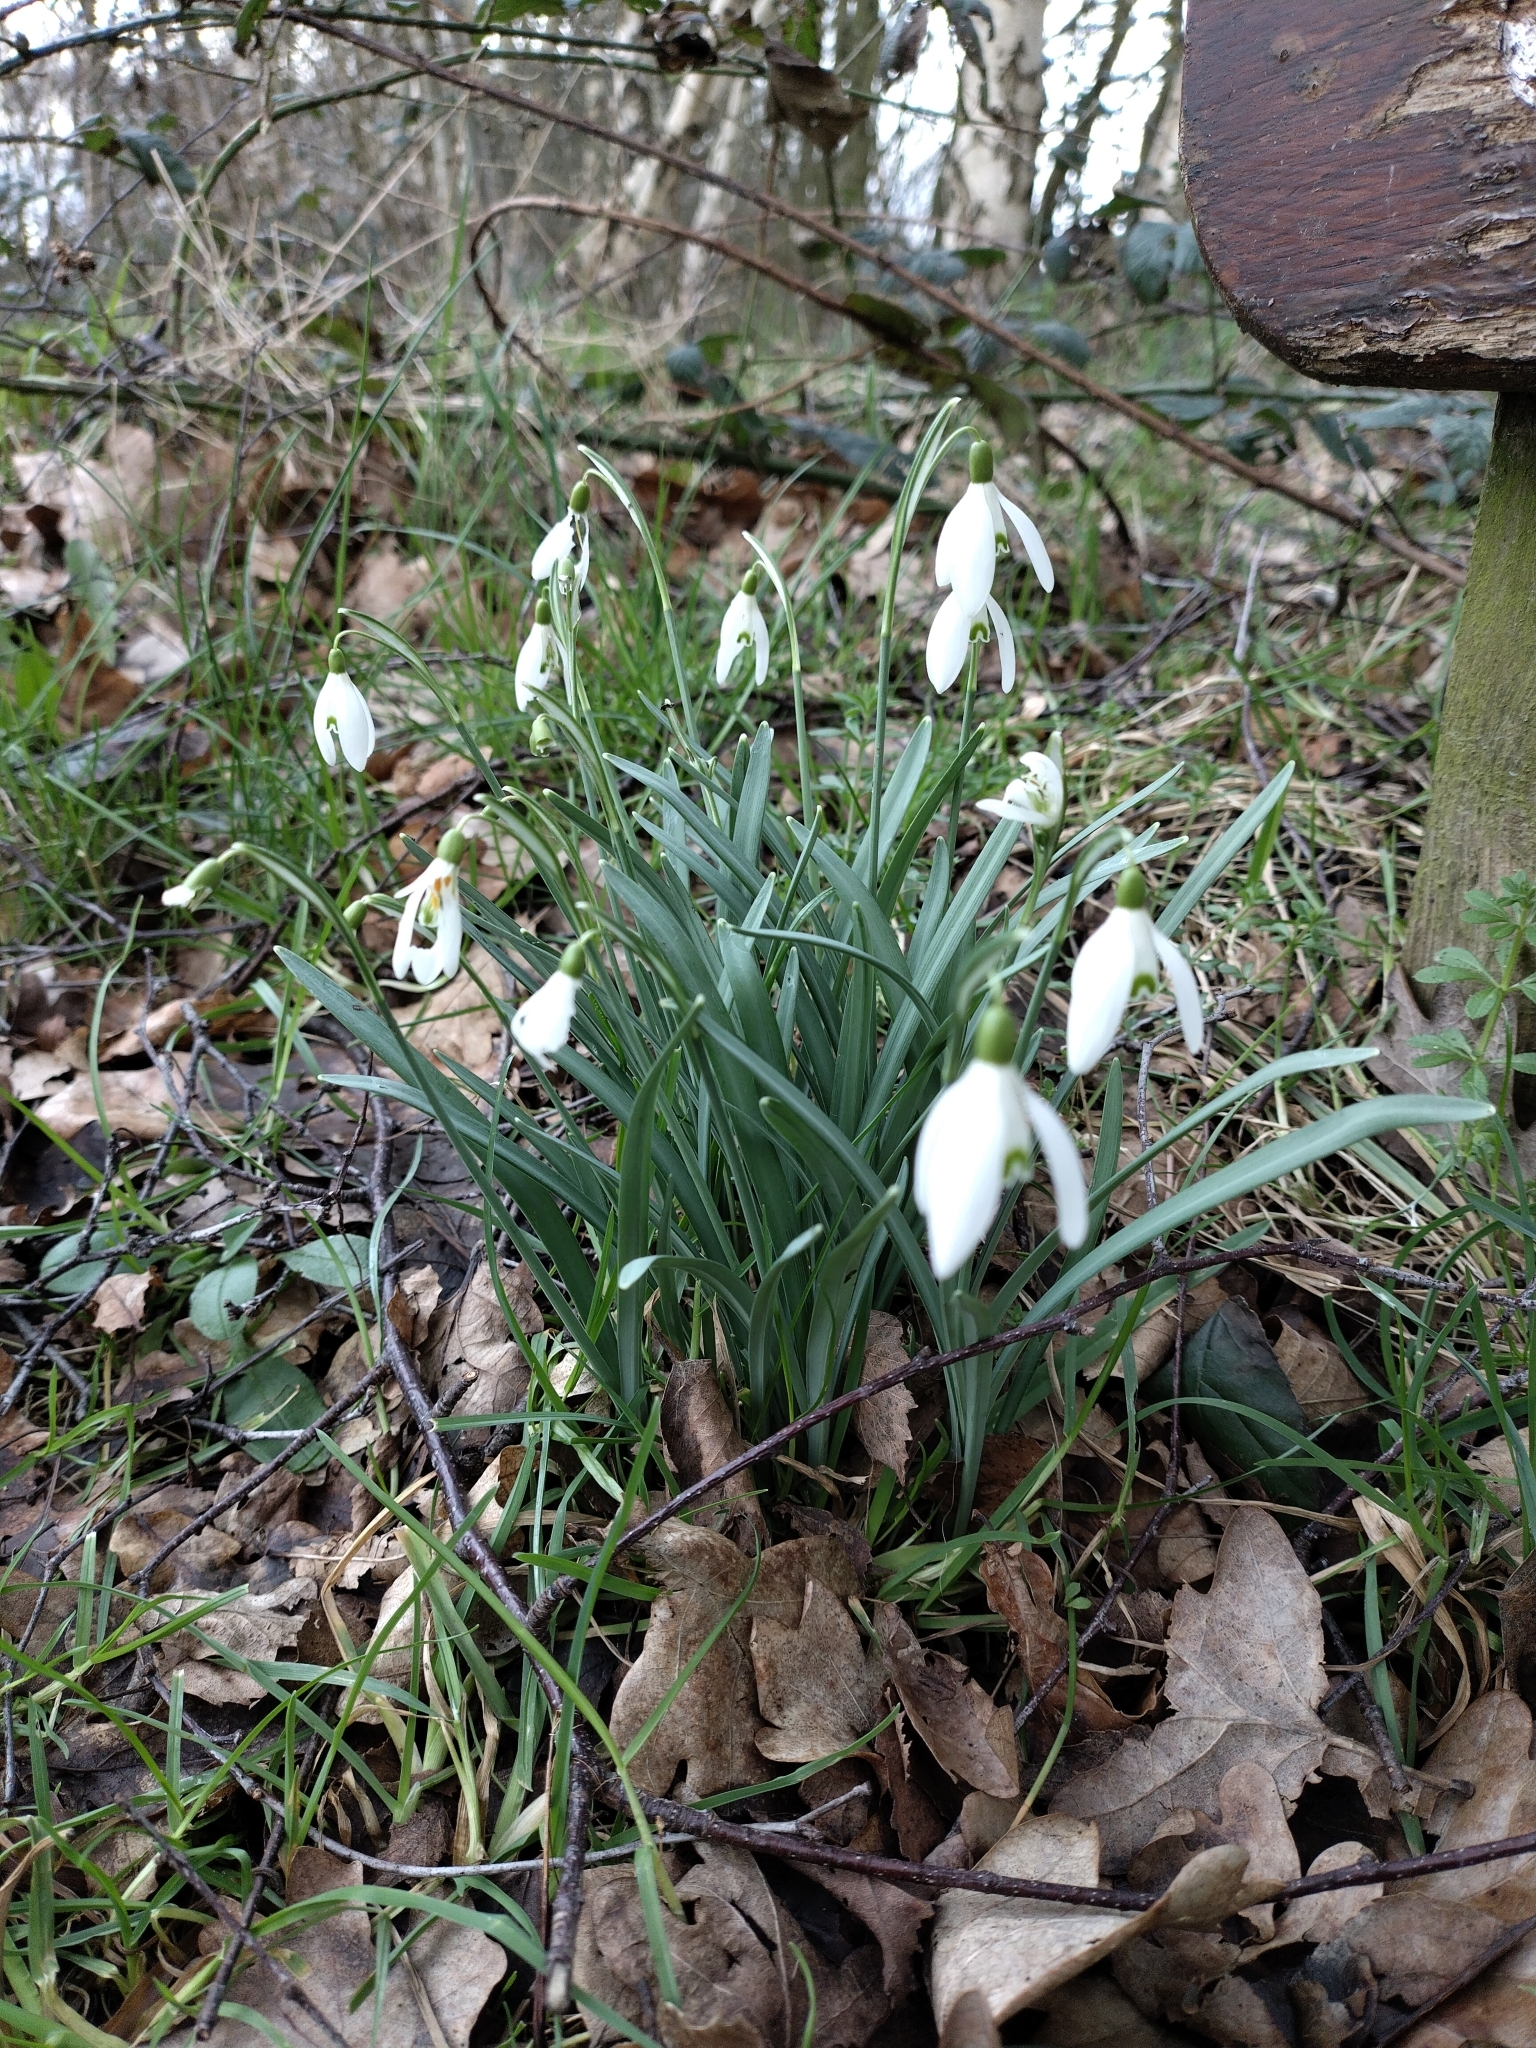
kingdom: Plantae
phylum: Tracheophyta
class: Liliopsida
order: Asparagales
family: Amaryllidaceae
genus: Galanthus
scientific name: Galanthus nivalis
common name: Snowdrop
